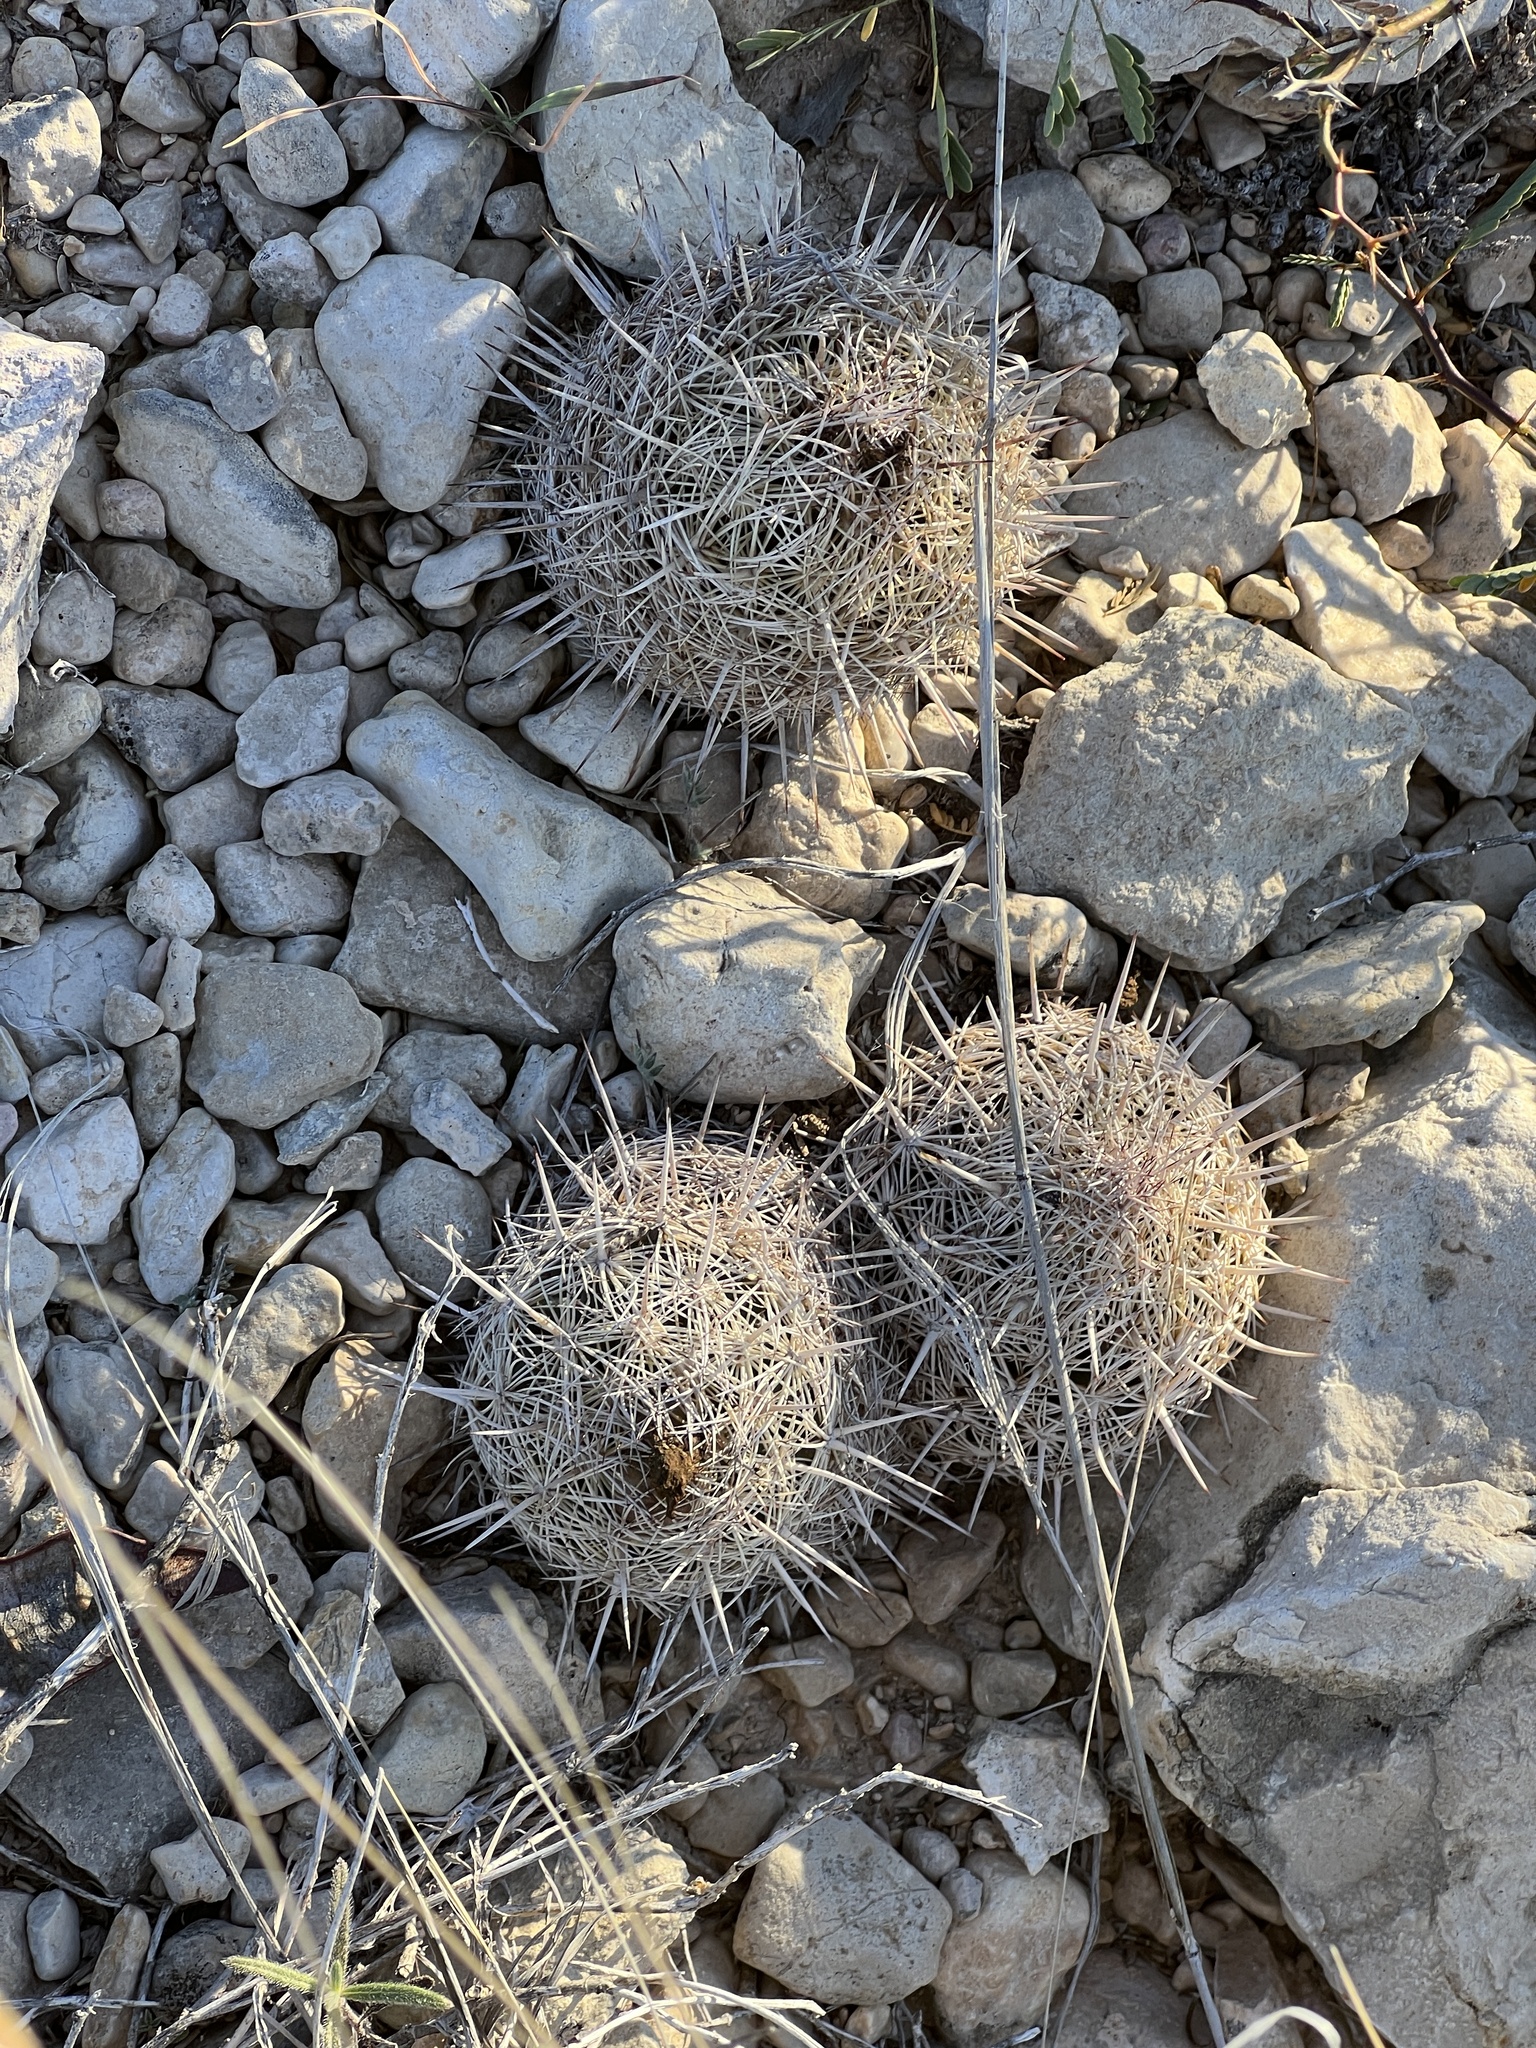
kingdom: Plantae
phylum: Tracheophyta
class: Magnoliopsida
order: Caryophyllales
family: Cactaceae
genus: Coryphantha
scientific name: Coryphantha echinus
